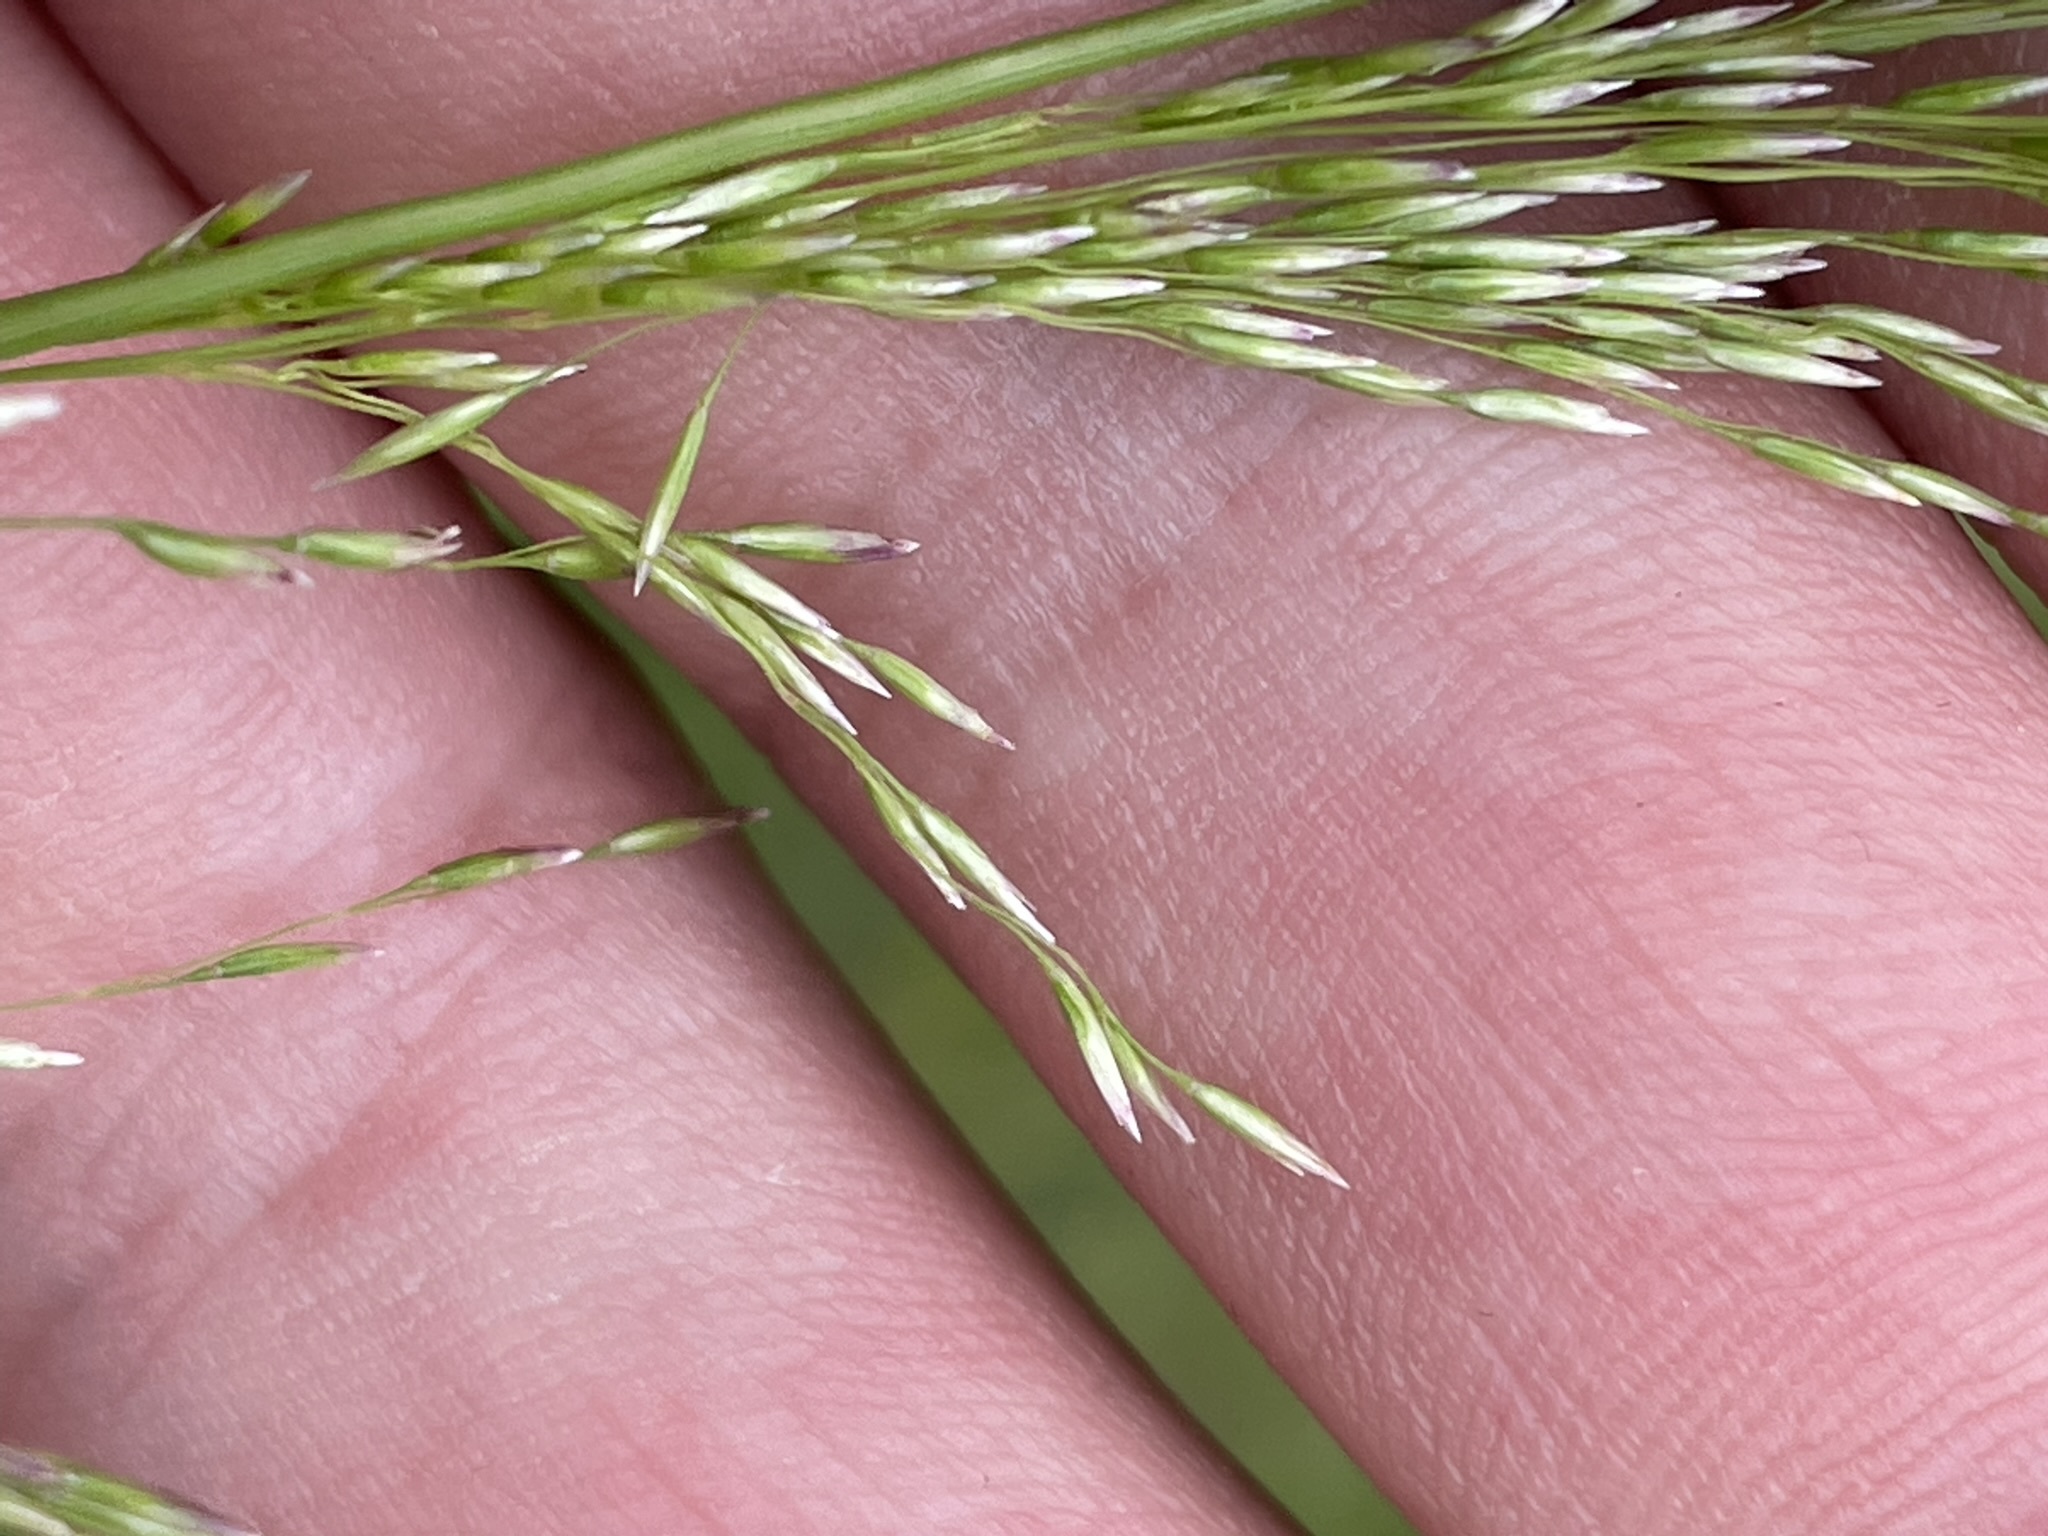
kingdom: Plantae
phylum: Tracheophyta
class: Liliopsida
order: Poales
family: Poaceae
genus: Deschampsia
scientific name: Deschampsia cespitosa
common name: Tufted hair-grass
